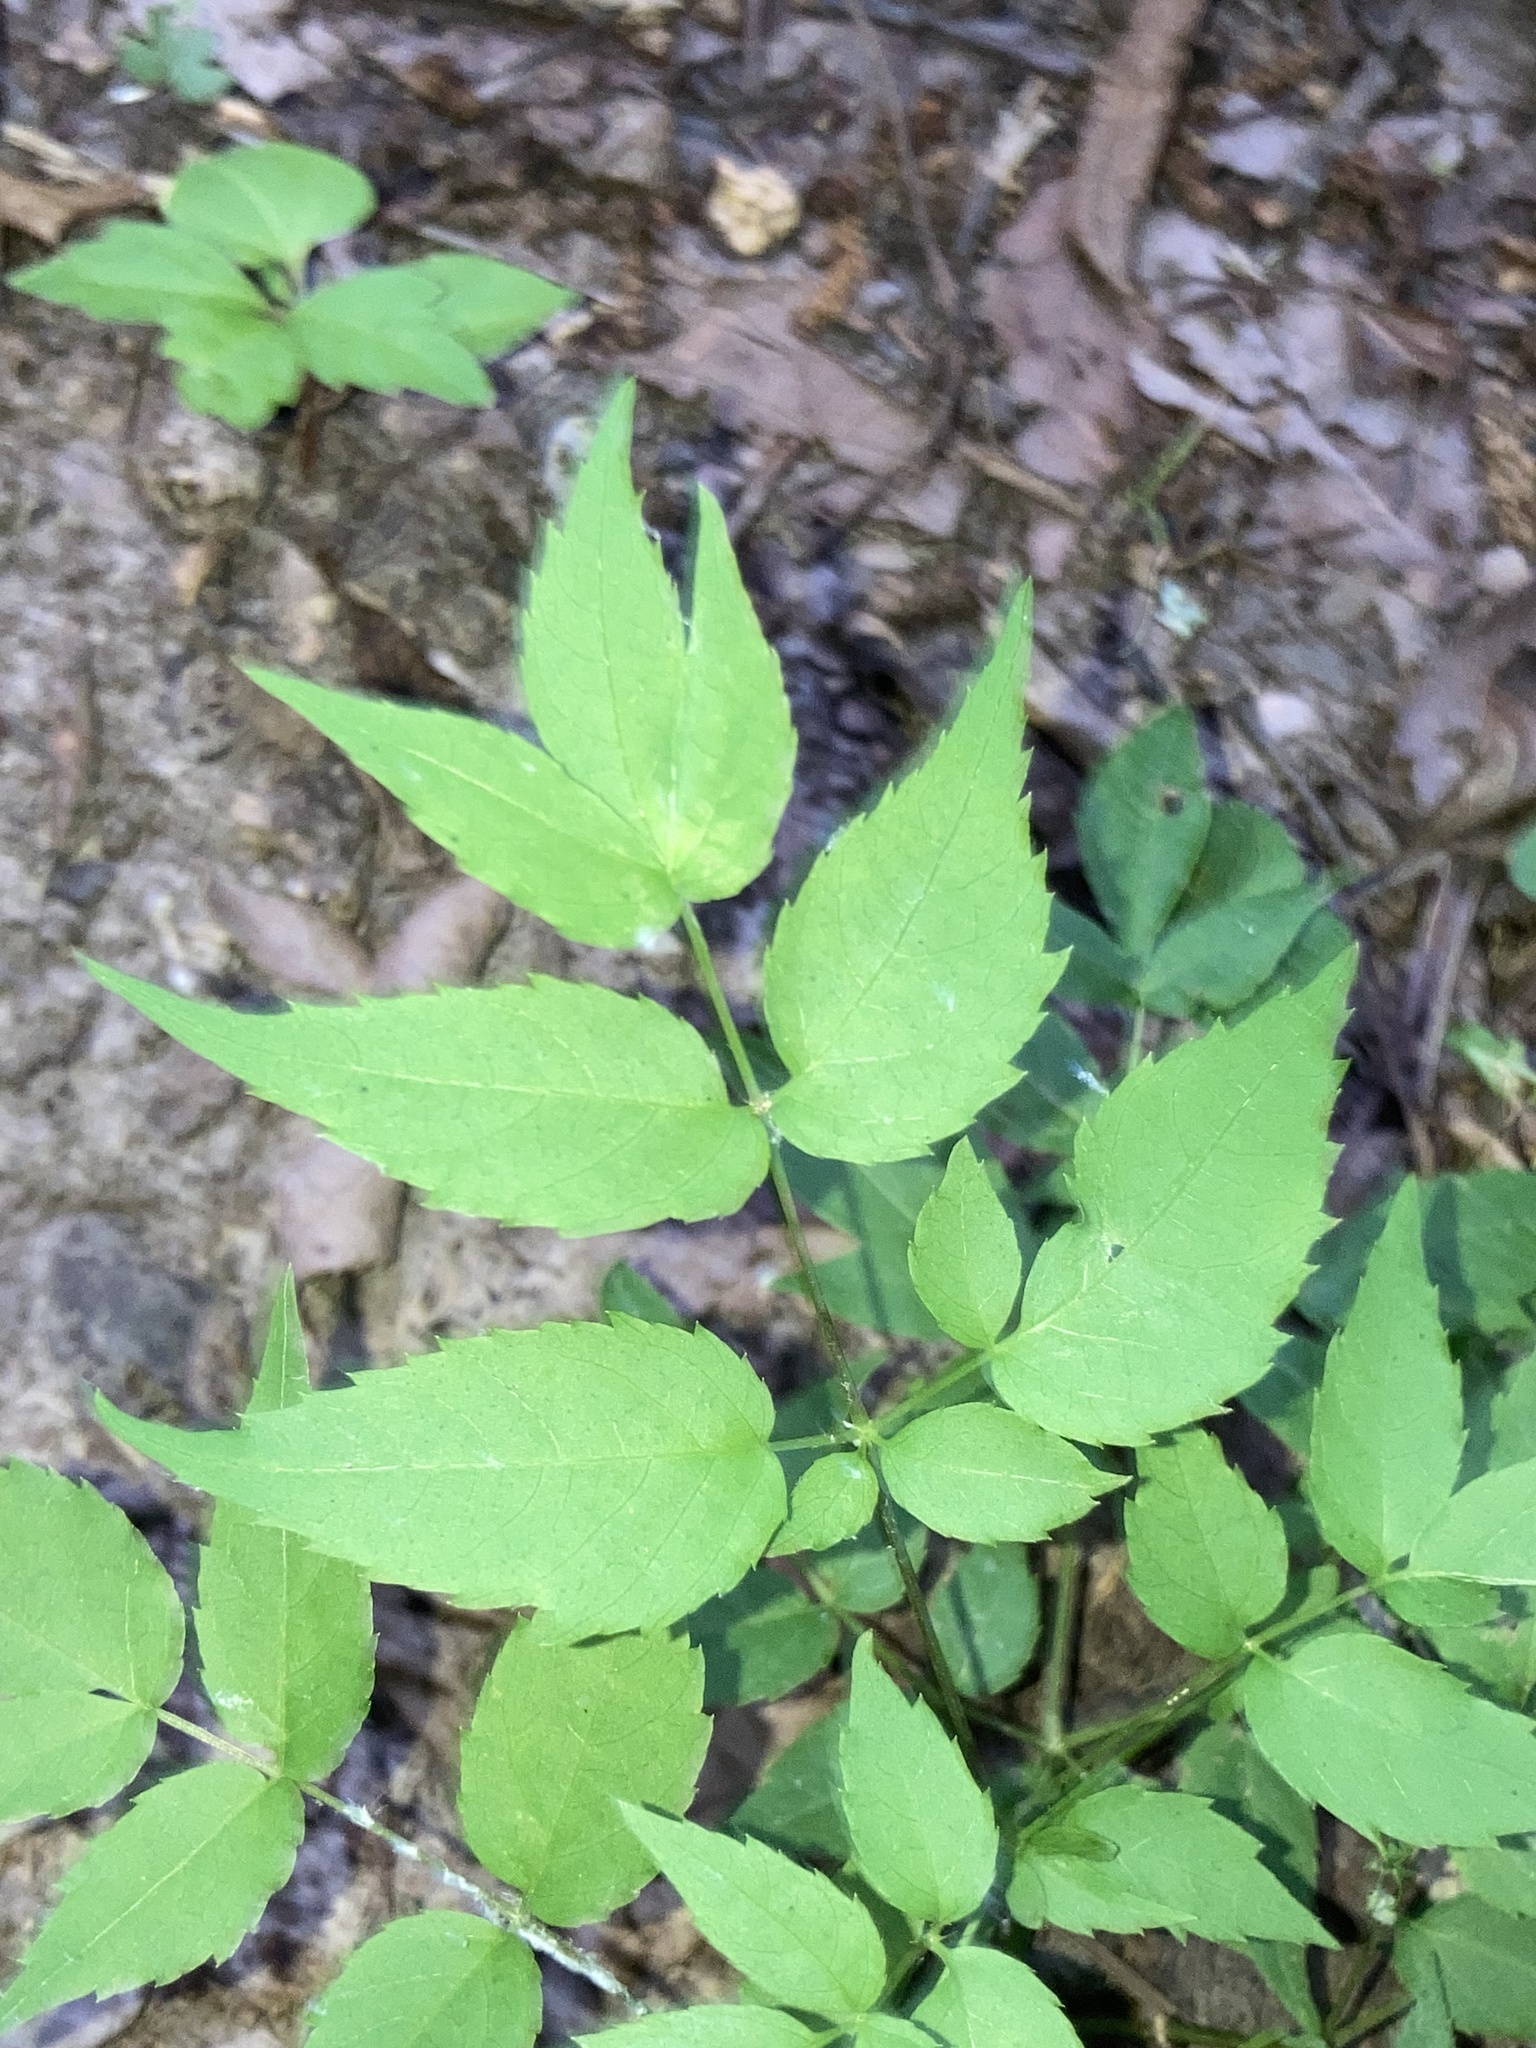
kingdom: Plantae
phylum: Tracheophyta
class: Magnoliopsida
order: Apiales
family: Araliaceae
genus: Aralia
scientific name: Aralia spinosa
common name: Hercules'-club
